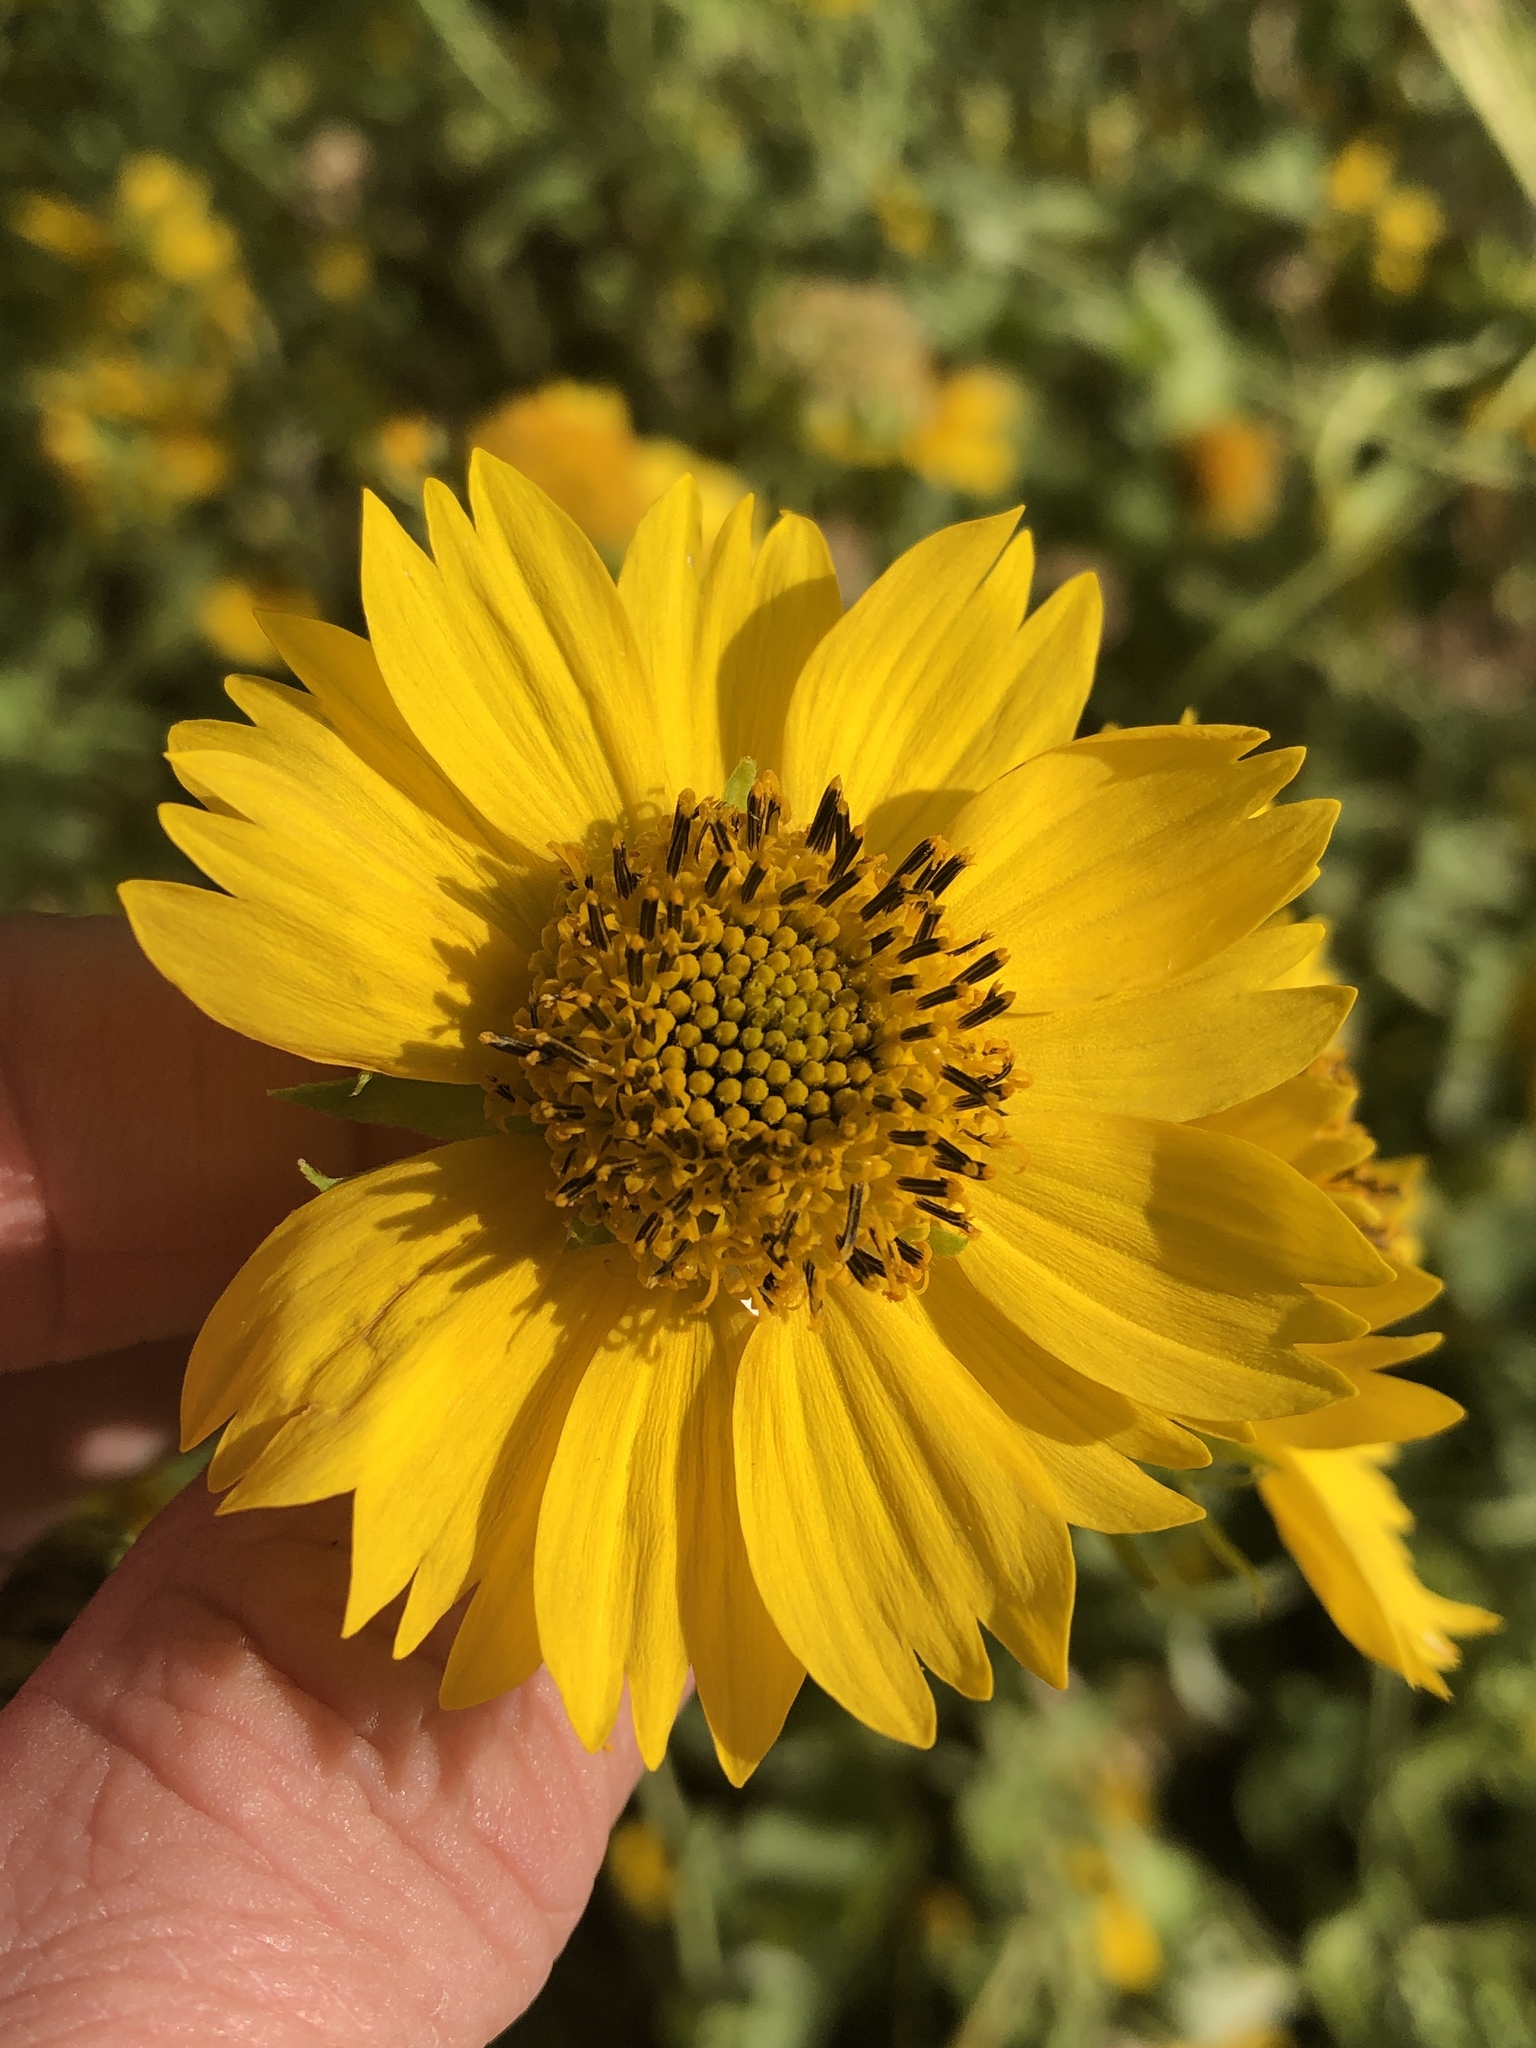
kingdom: Plantae
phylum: Tracheophyta
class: Magnoliopsida
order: Asterales
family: Asteraceae
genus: Verbesina
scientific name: Verbesina encelioides
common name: Golden crownbeard
